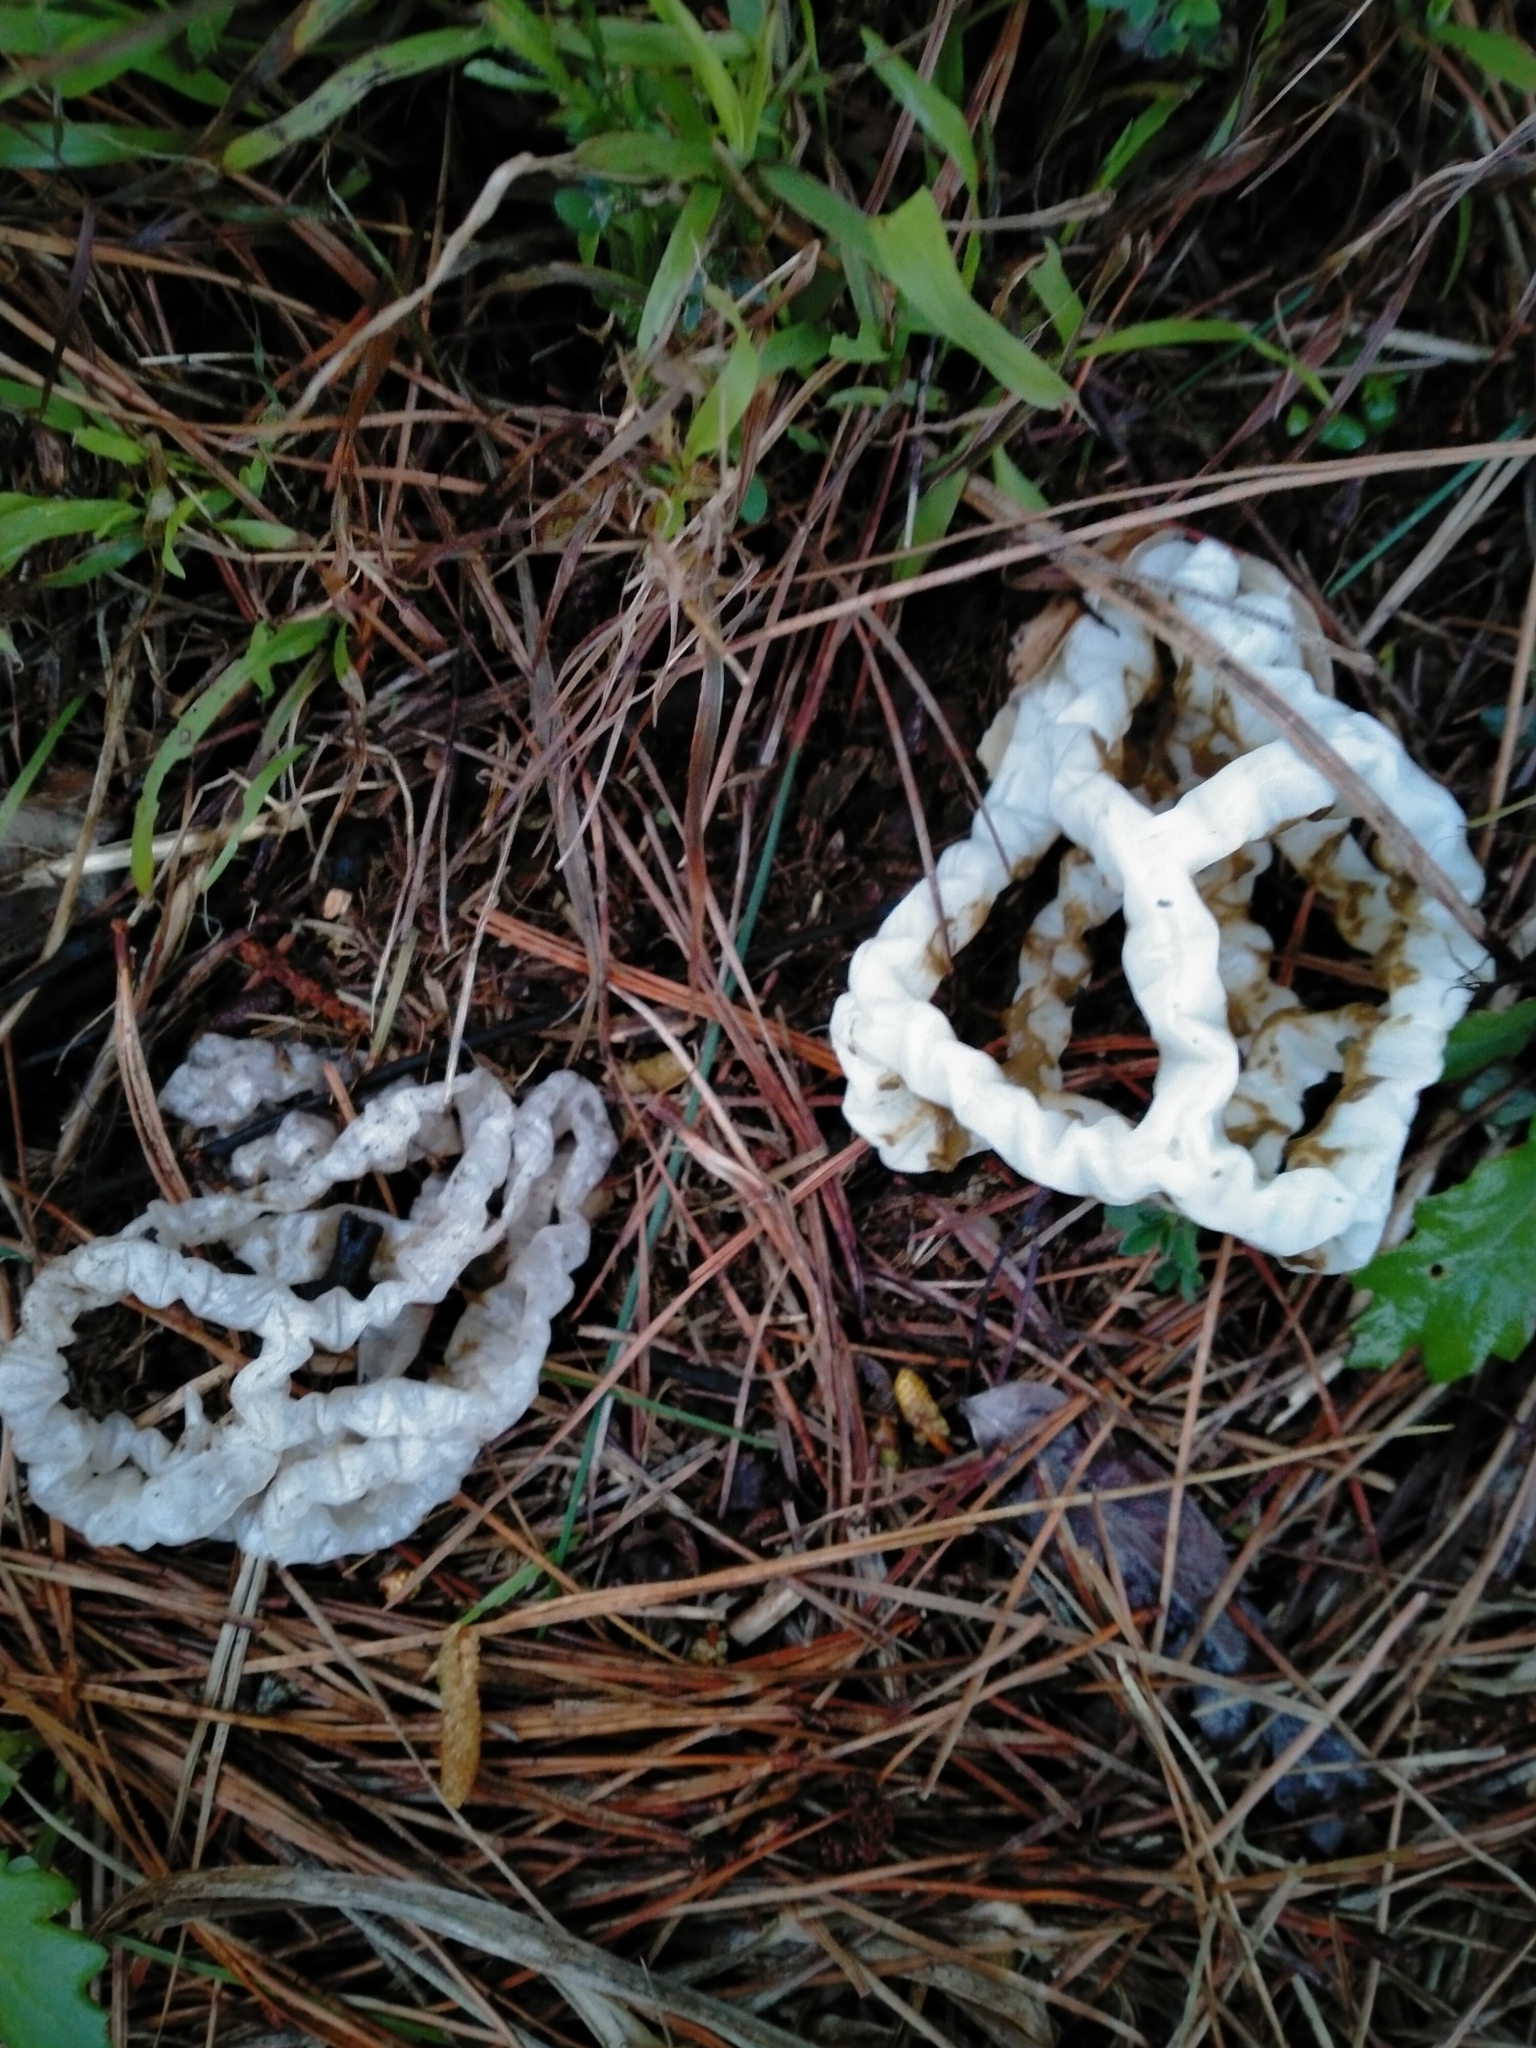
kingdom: Fungi
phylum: Basidiomycota
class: Agaricomycetes
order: Phallales
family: Phallaceae
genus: Ileodictyon
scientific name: Ileodictyon cibarium
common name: Basket fungus
